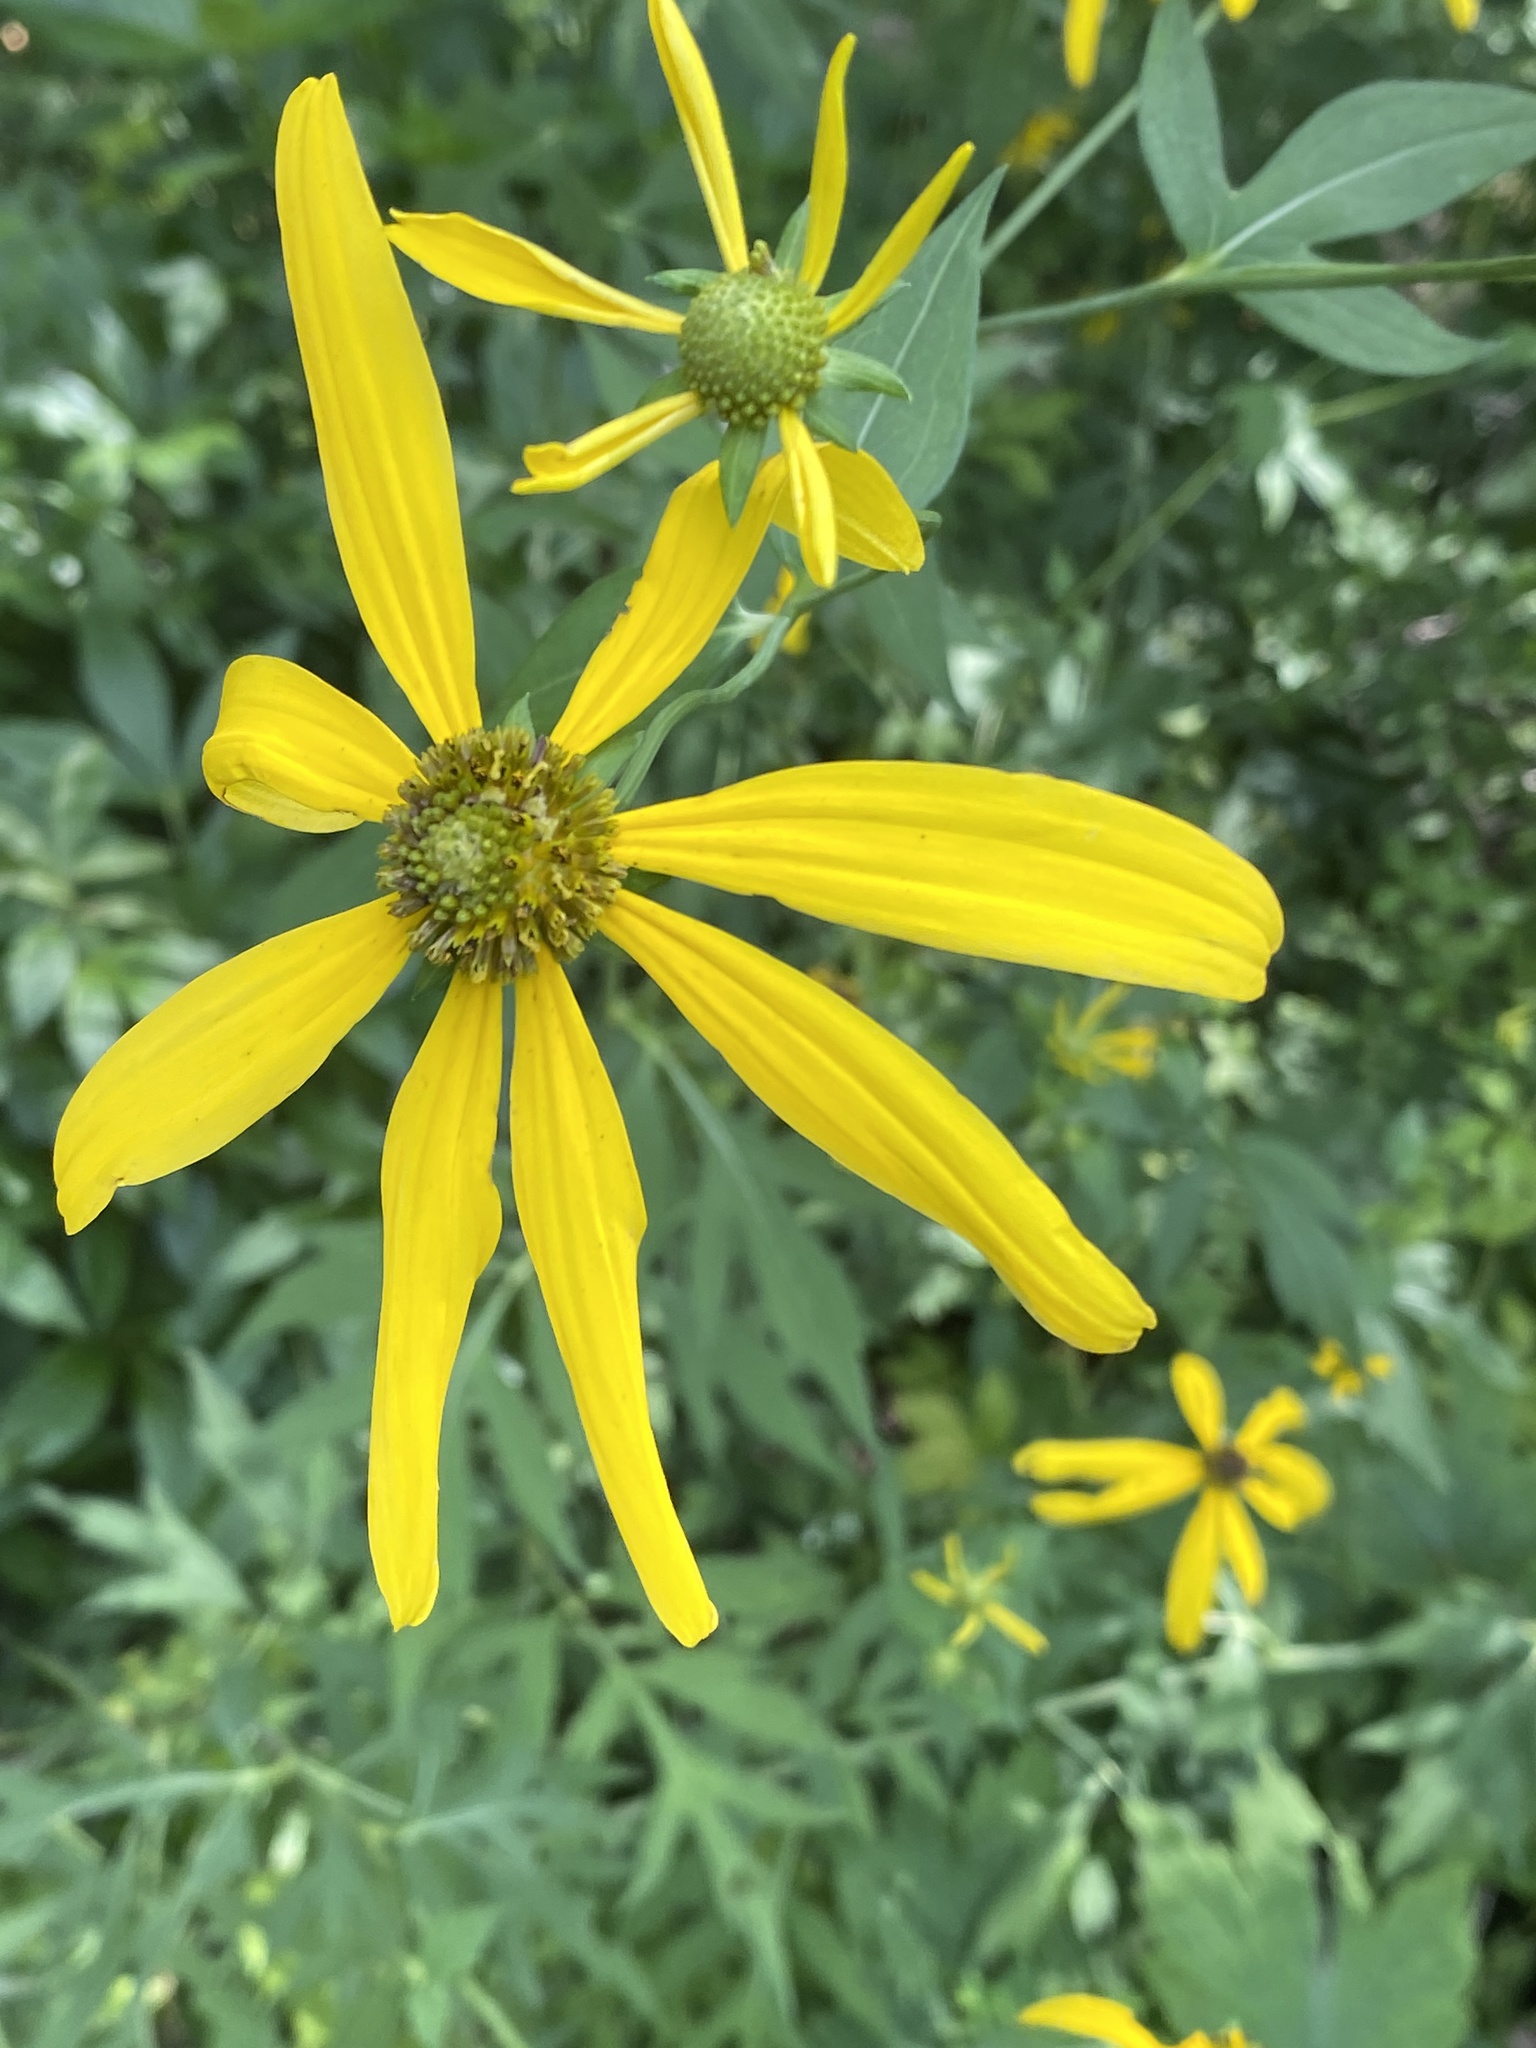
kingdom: Plantae
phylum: Tracheophyta
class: Magnoliopsida
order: Asterales
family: Asteraceae
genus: Rudbeckia
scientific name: Rudbeckia laciniata
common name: Coneflower
